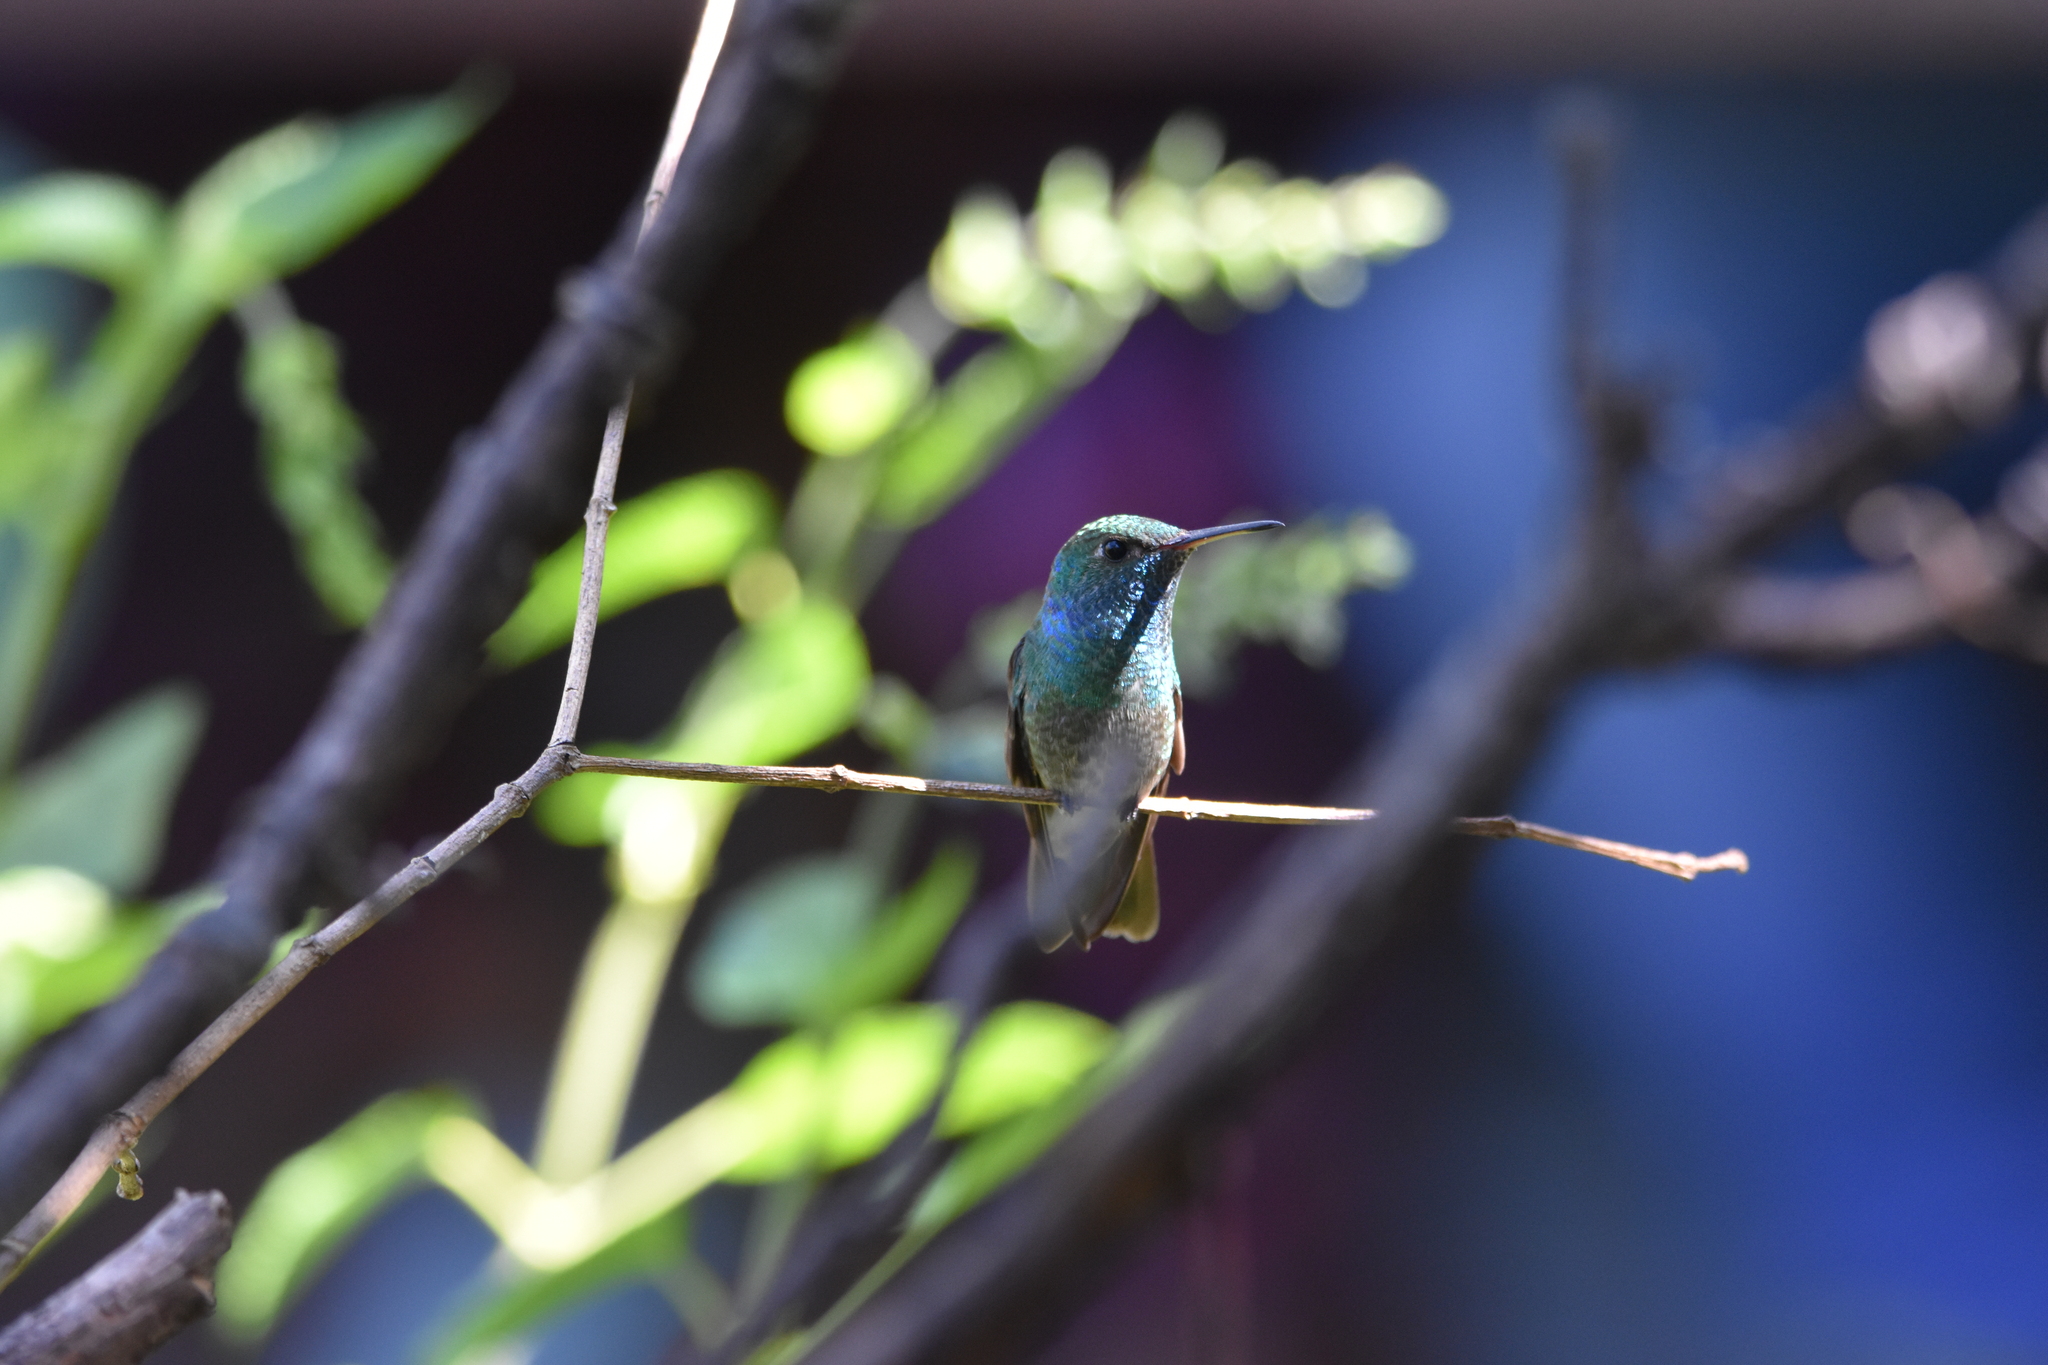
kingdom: Animalia
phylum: Chordata
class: Aves
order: Apodiformes
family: Trochilidae
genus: Chrysuronia
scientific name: Chrysuronia versicolor
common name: Versicolored emerald
